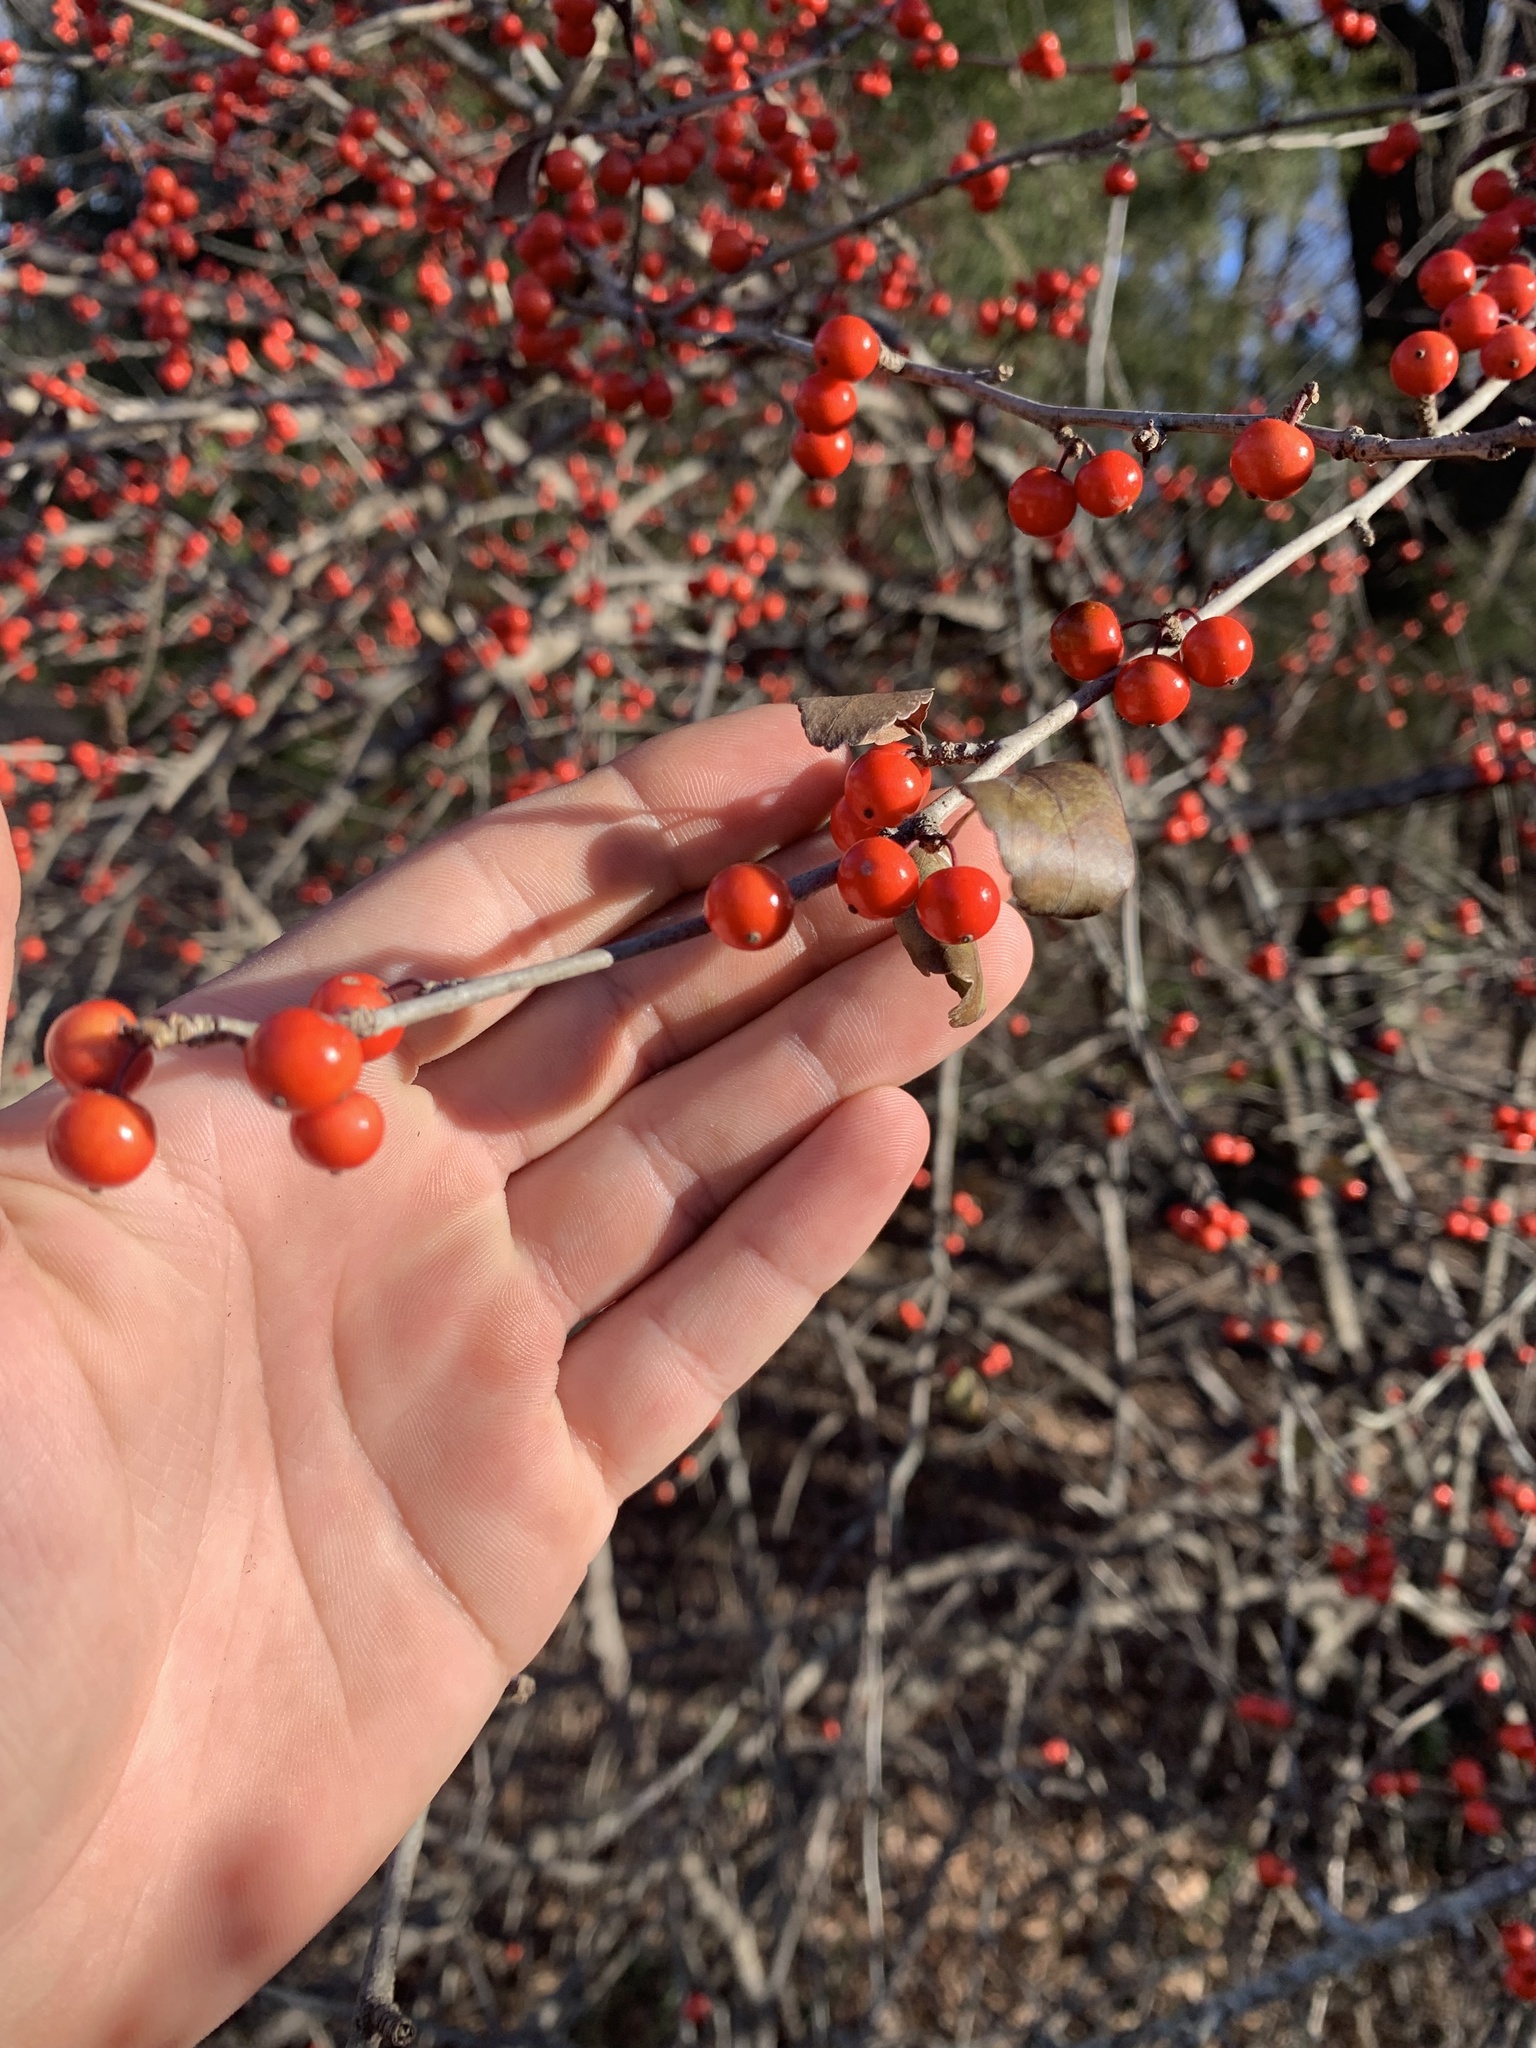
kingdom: Plantae
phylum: Tracheophyta
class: Magnoliopsida
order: Aquifoliales
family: Aquifoliaceae
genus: Ilex
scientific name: Ilex decidua
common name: Possum-haw
